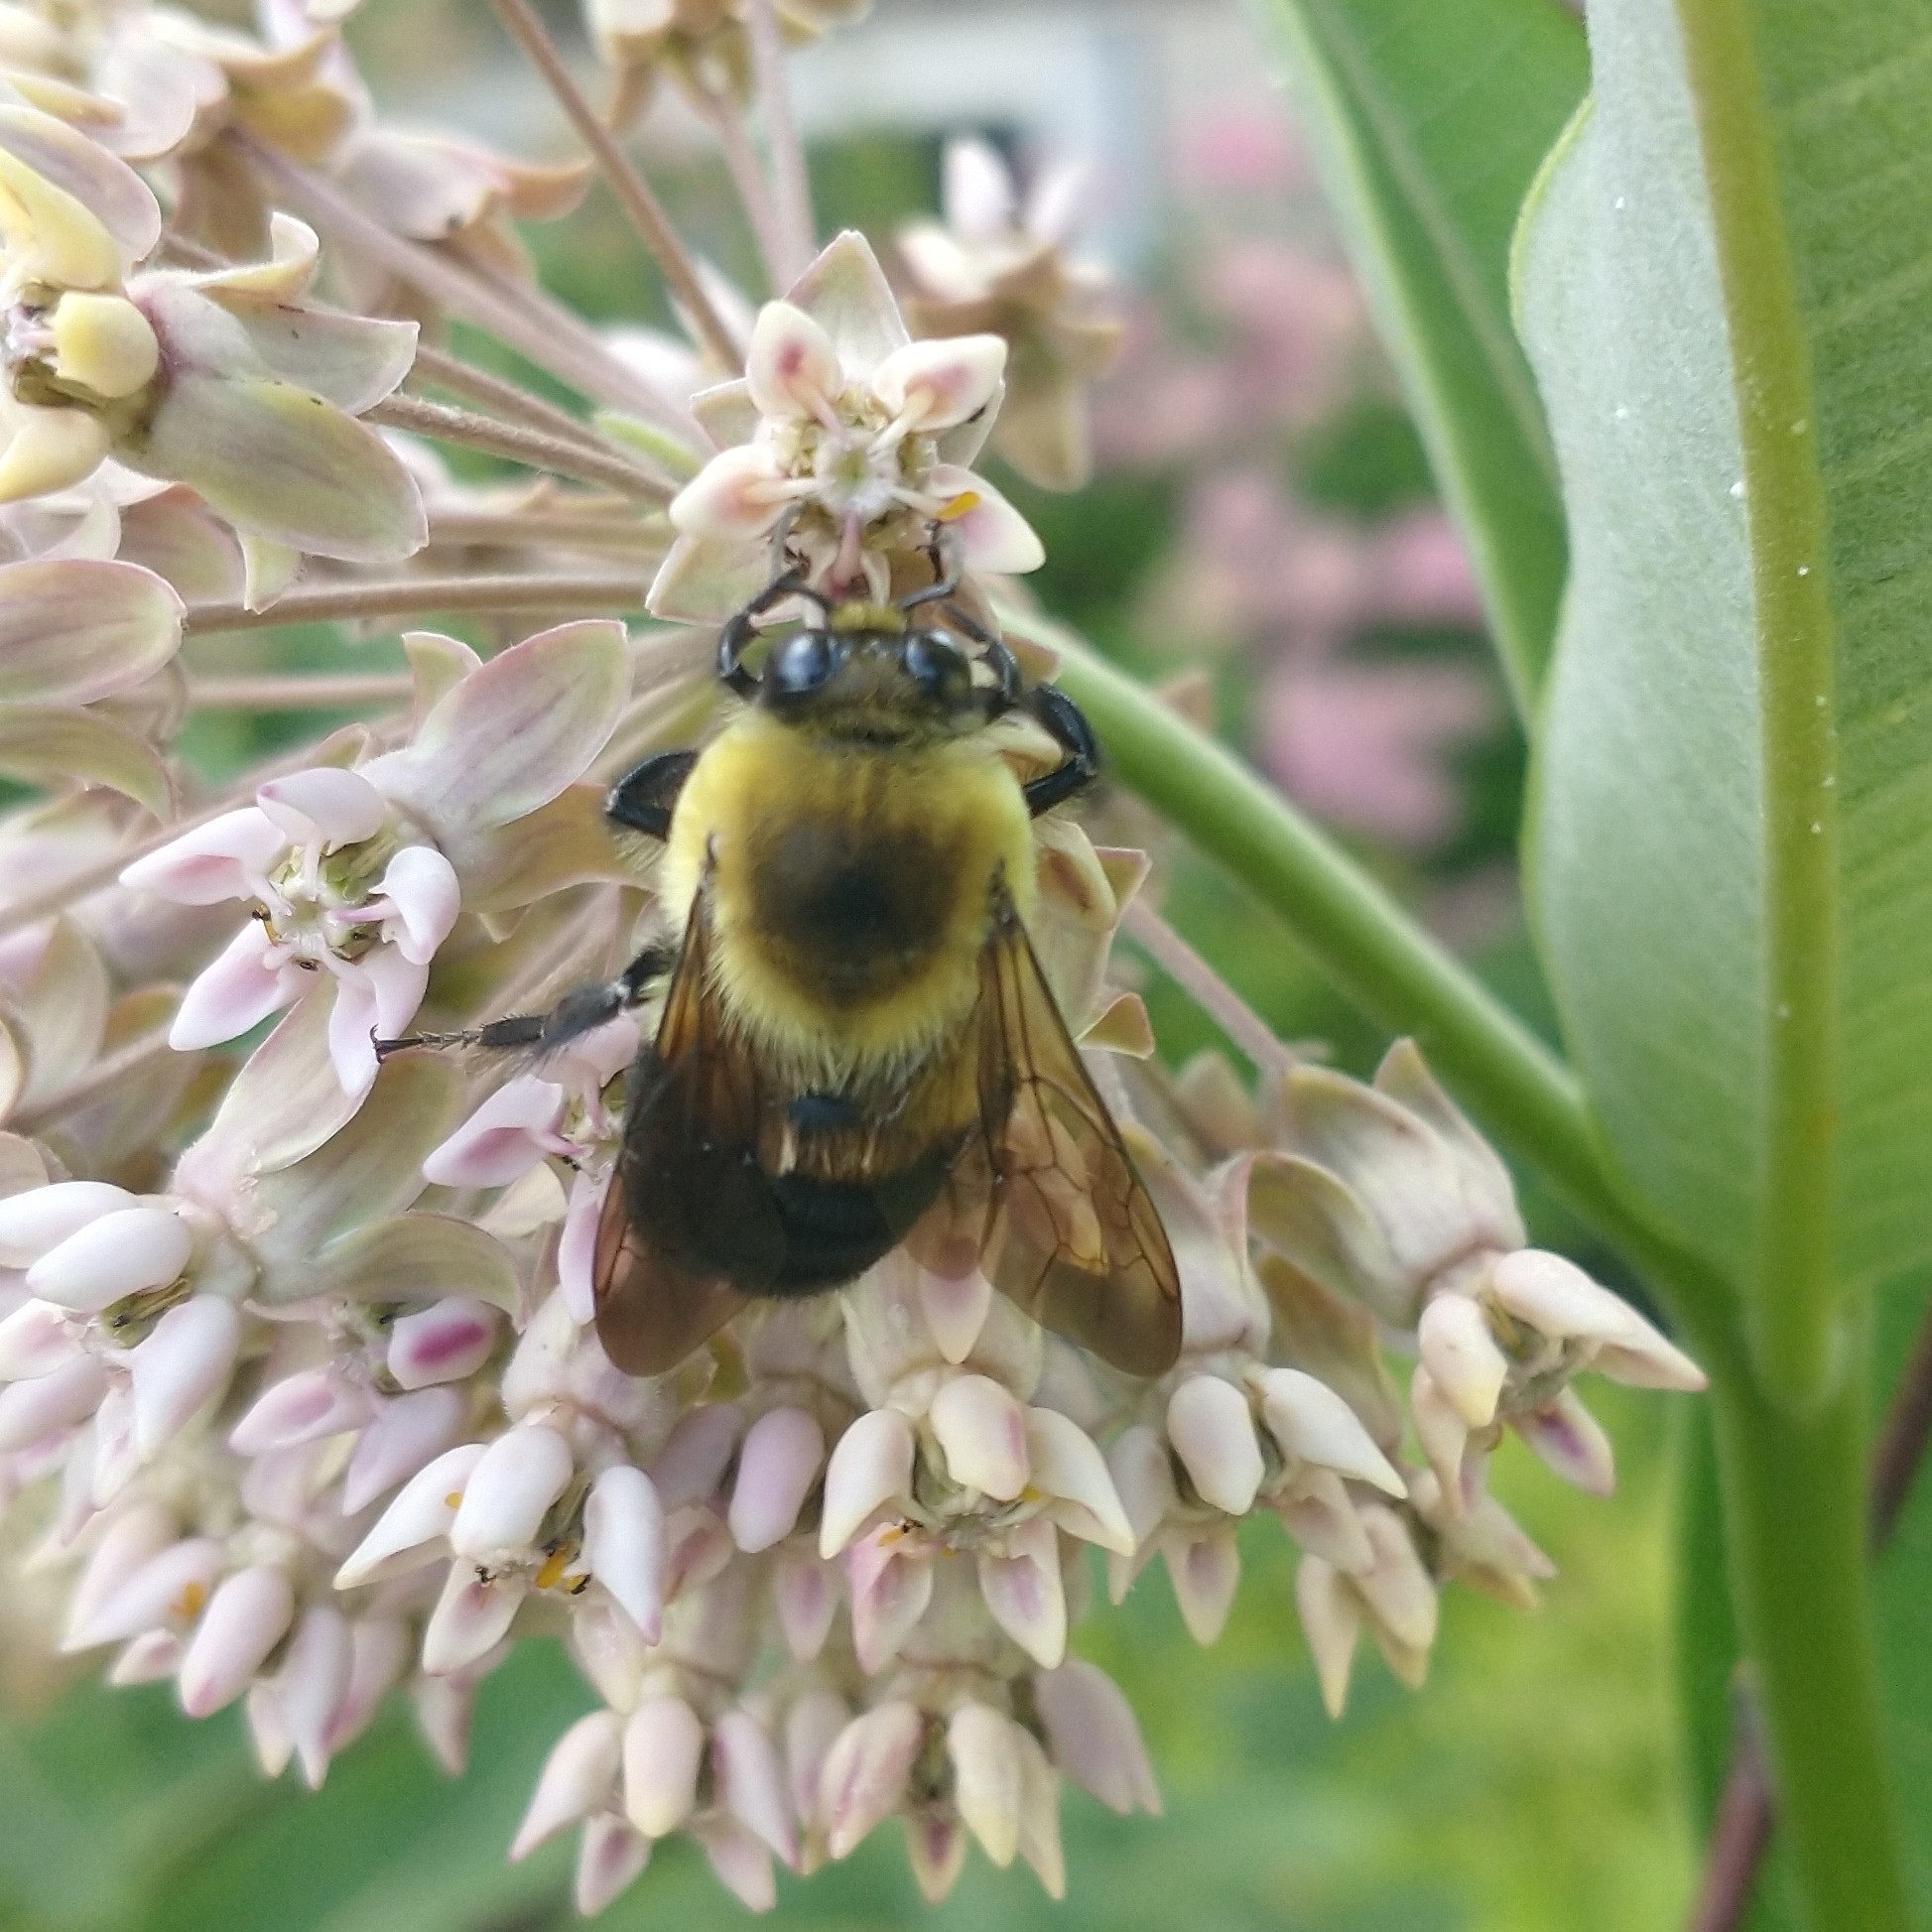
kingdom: Animalia
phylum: Arthropoda
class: Insecta
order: Hymenoptera
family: Apidae
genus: Bombus
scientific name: Bombus griseocollis
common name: Brown-belted bumble bee
